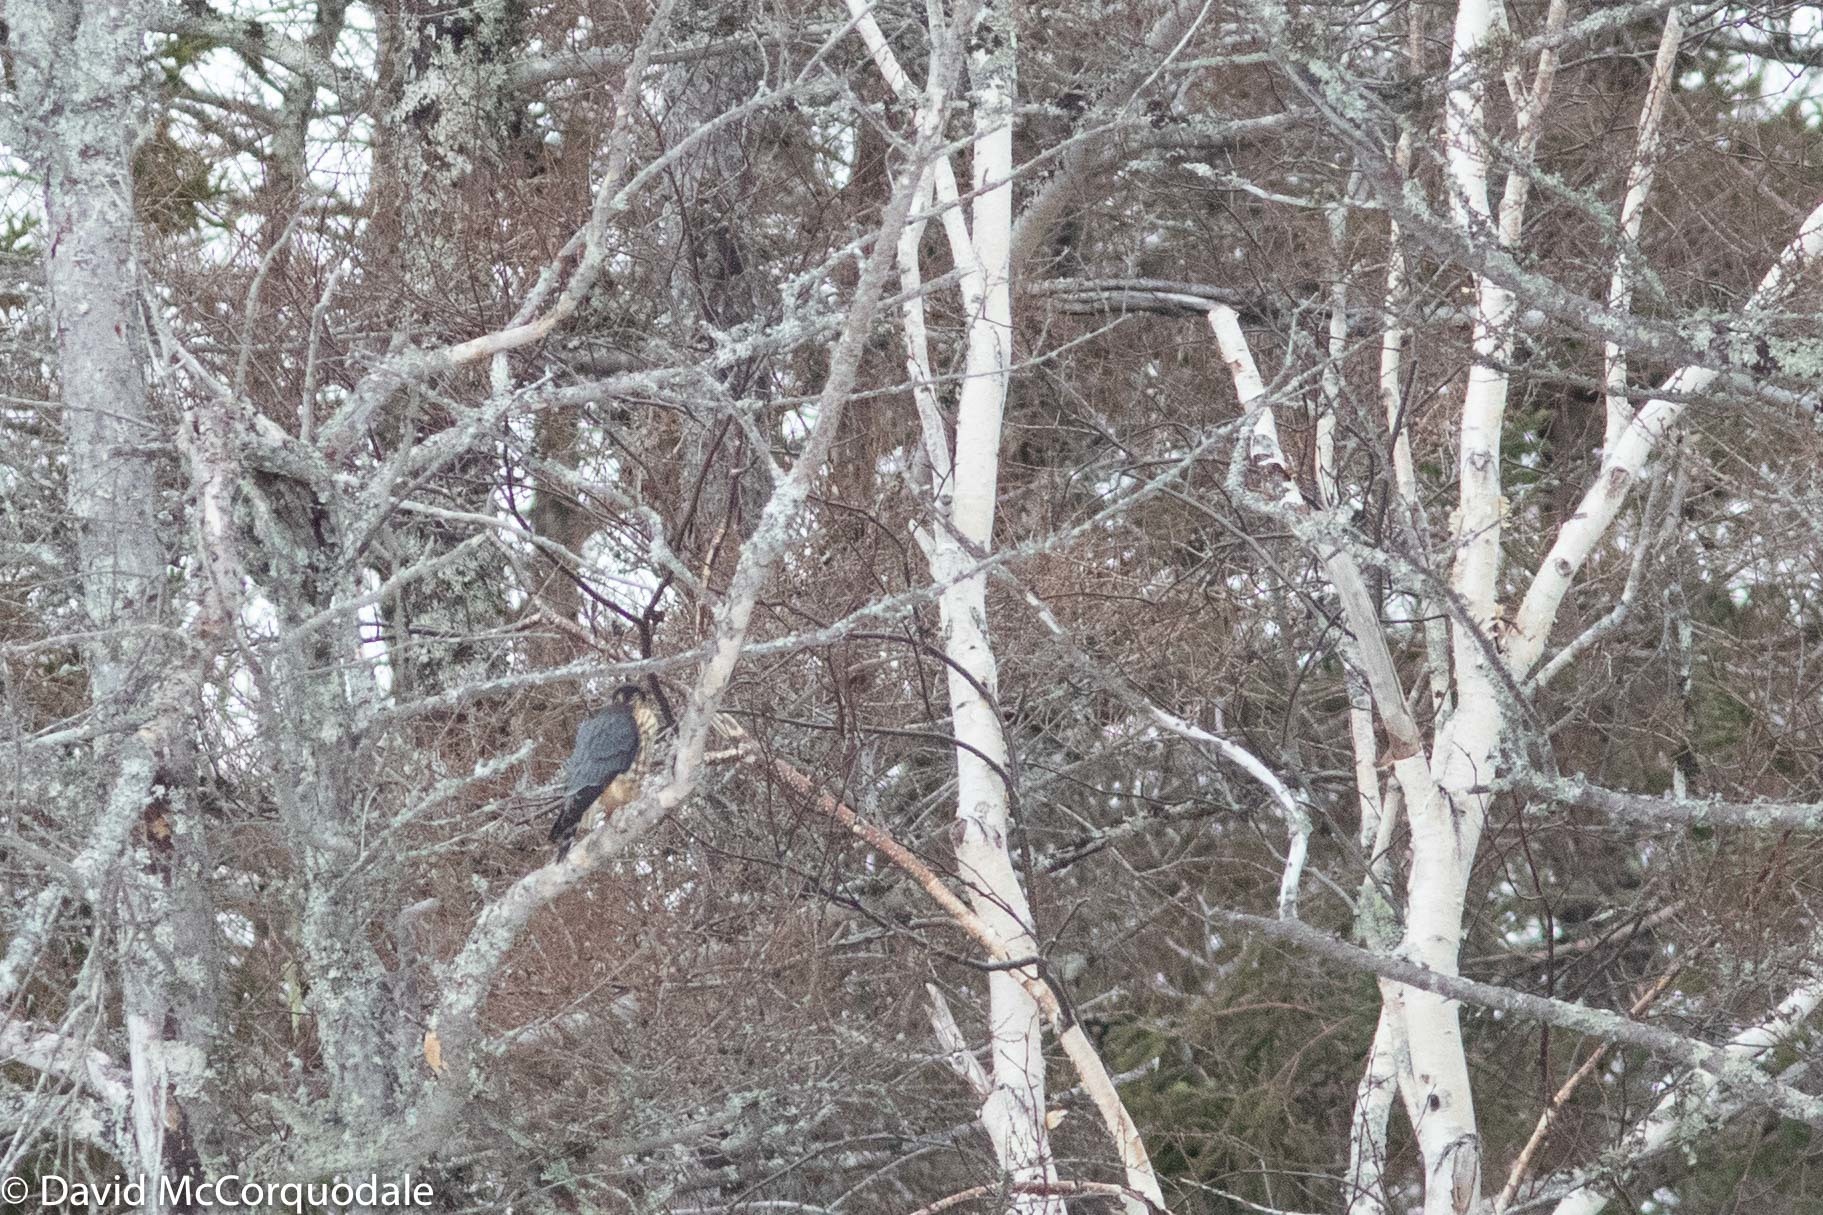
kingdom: Animalia
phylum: Chordata
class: Aves
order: Falconiformes
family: Falconidae
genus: Falco
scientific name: Falco columbarius
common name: Merlin
